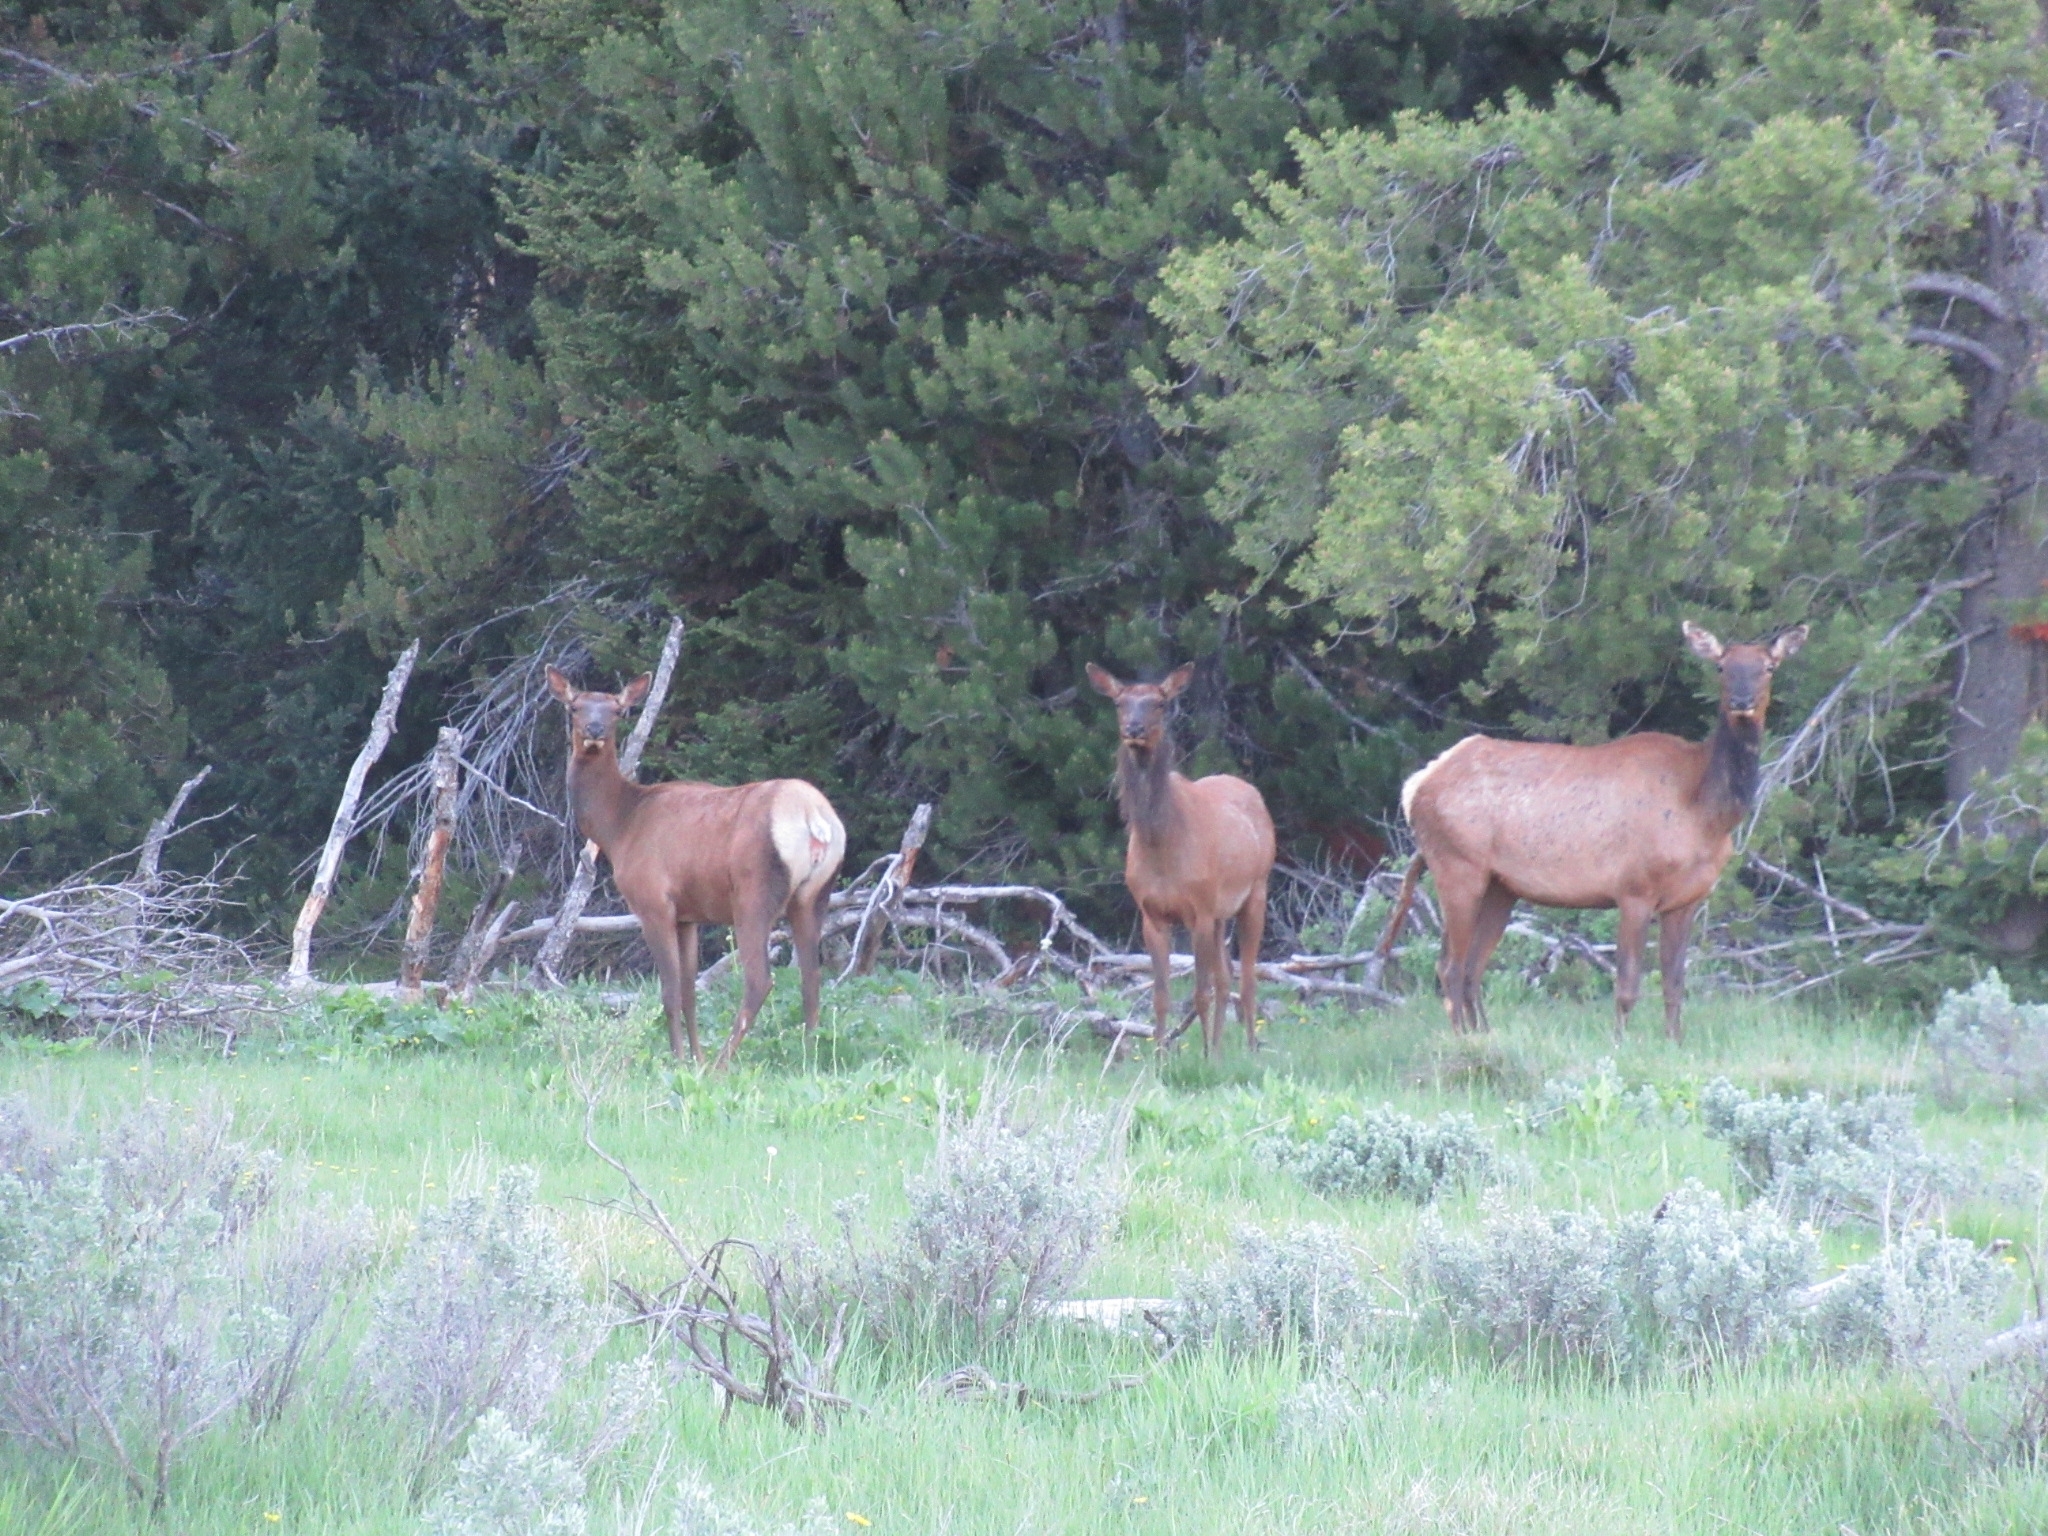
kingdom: Animalia
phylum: Chordata
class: Mammalia
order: Artiodactyla
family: Cervidae
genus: Cervus
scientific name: Cervus elaphus
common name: Red deer
